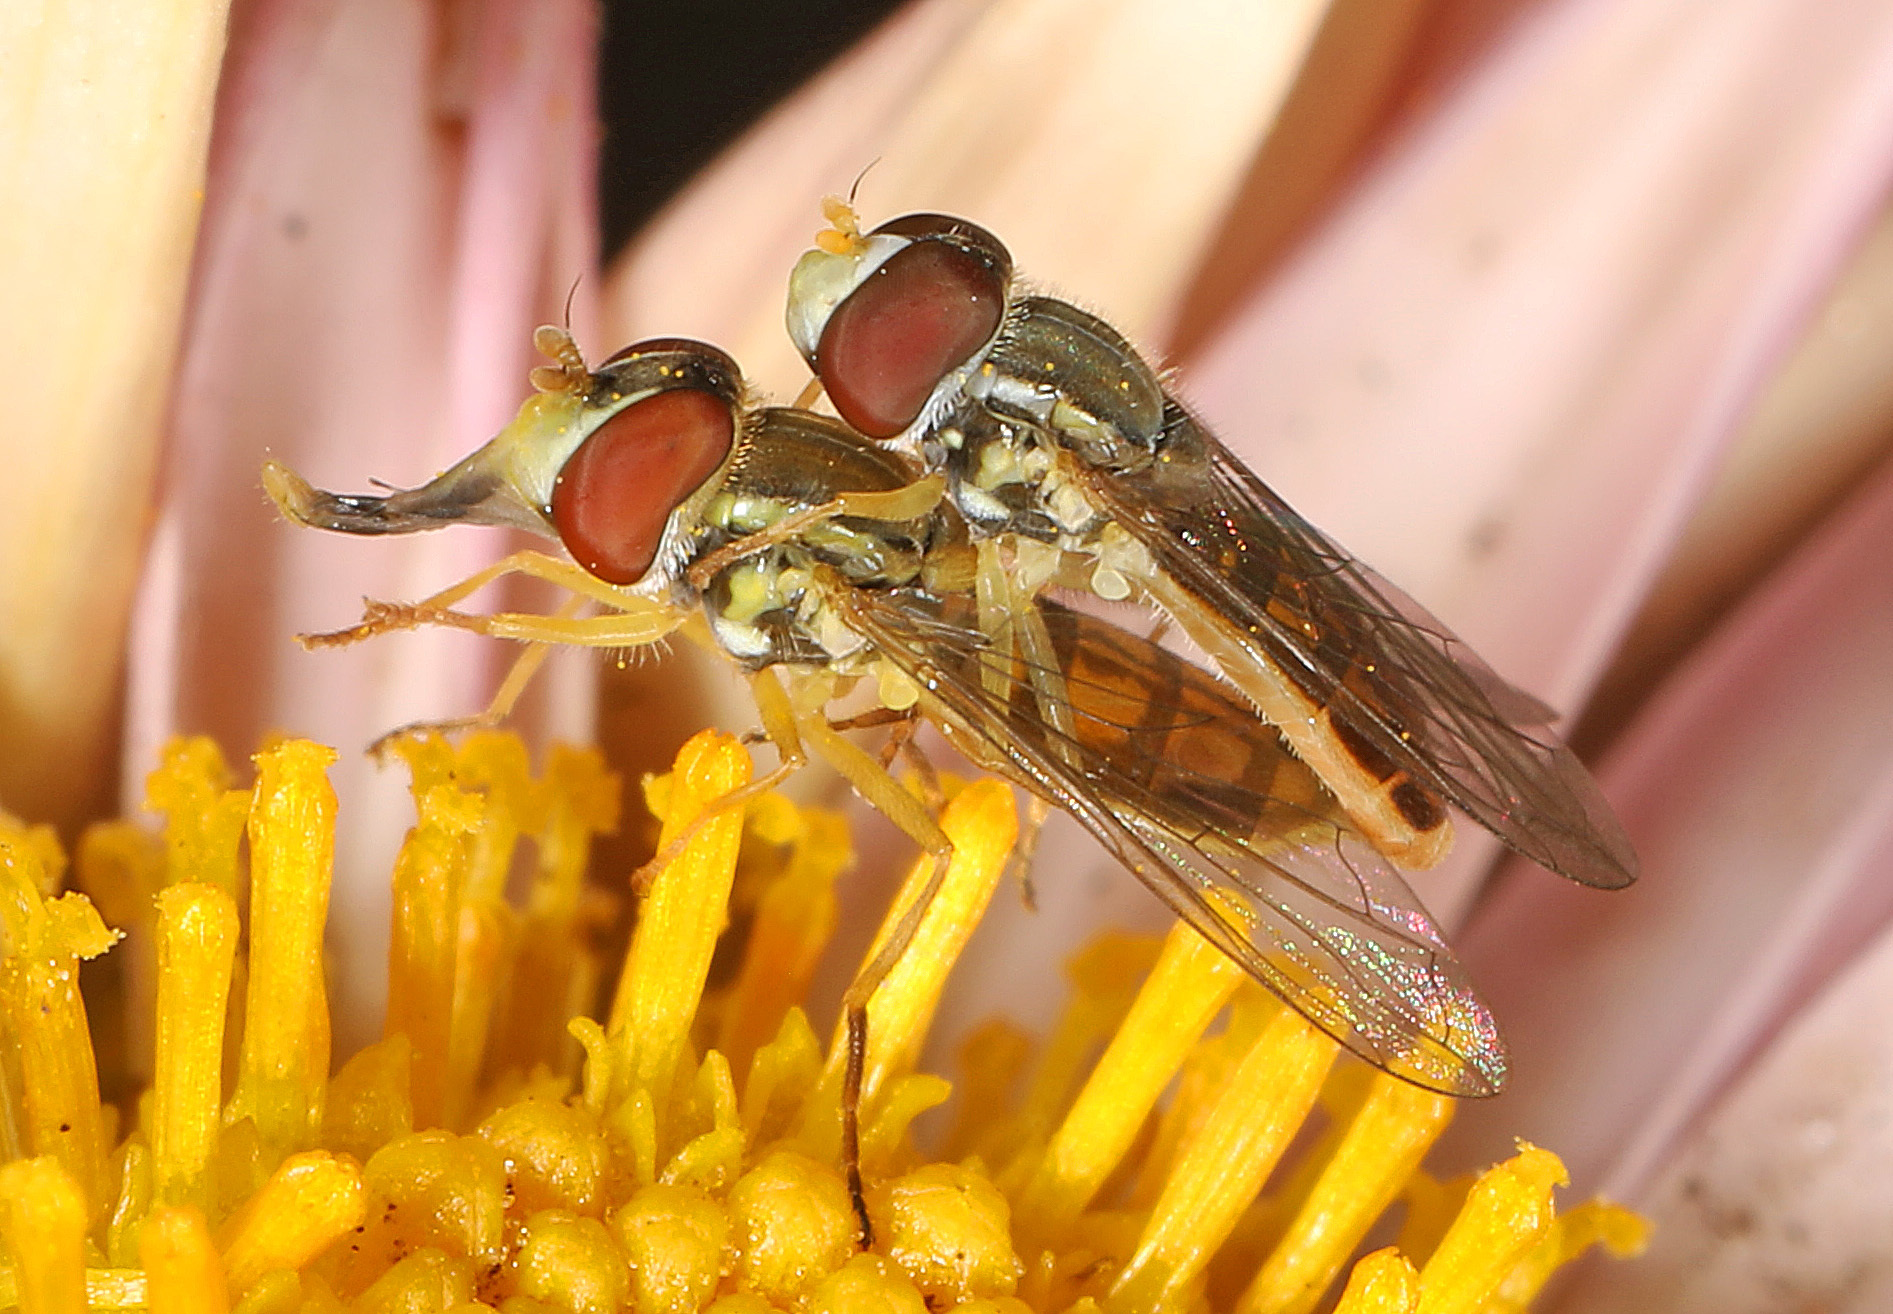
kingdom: Animalia
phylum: Arthropoda
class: Insecta
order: Diptera
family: Syrphidae
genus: Toxomerus
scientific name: Toxomerus marginatus
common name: Syrphid fly
